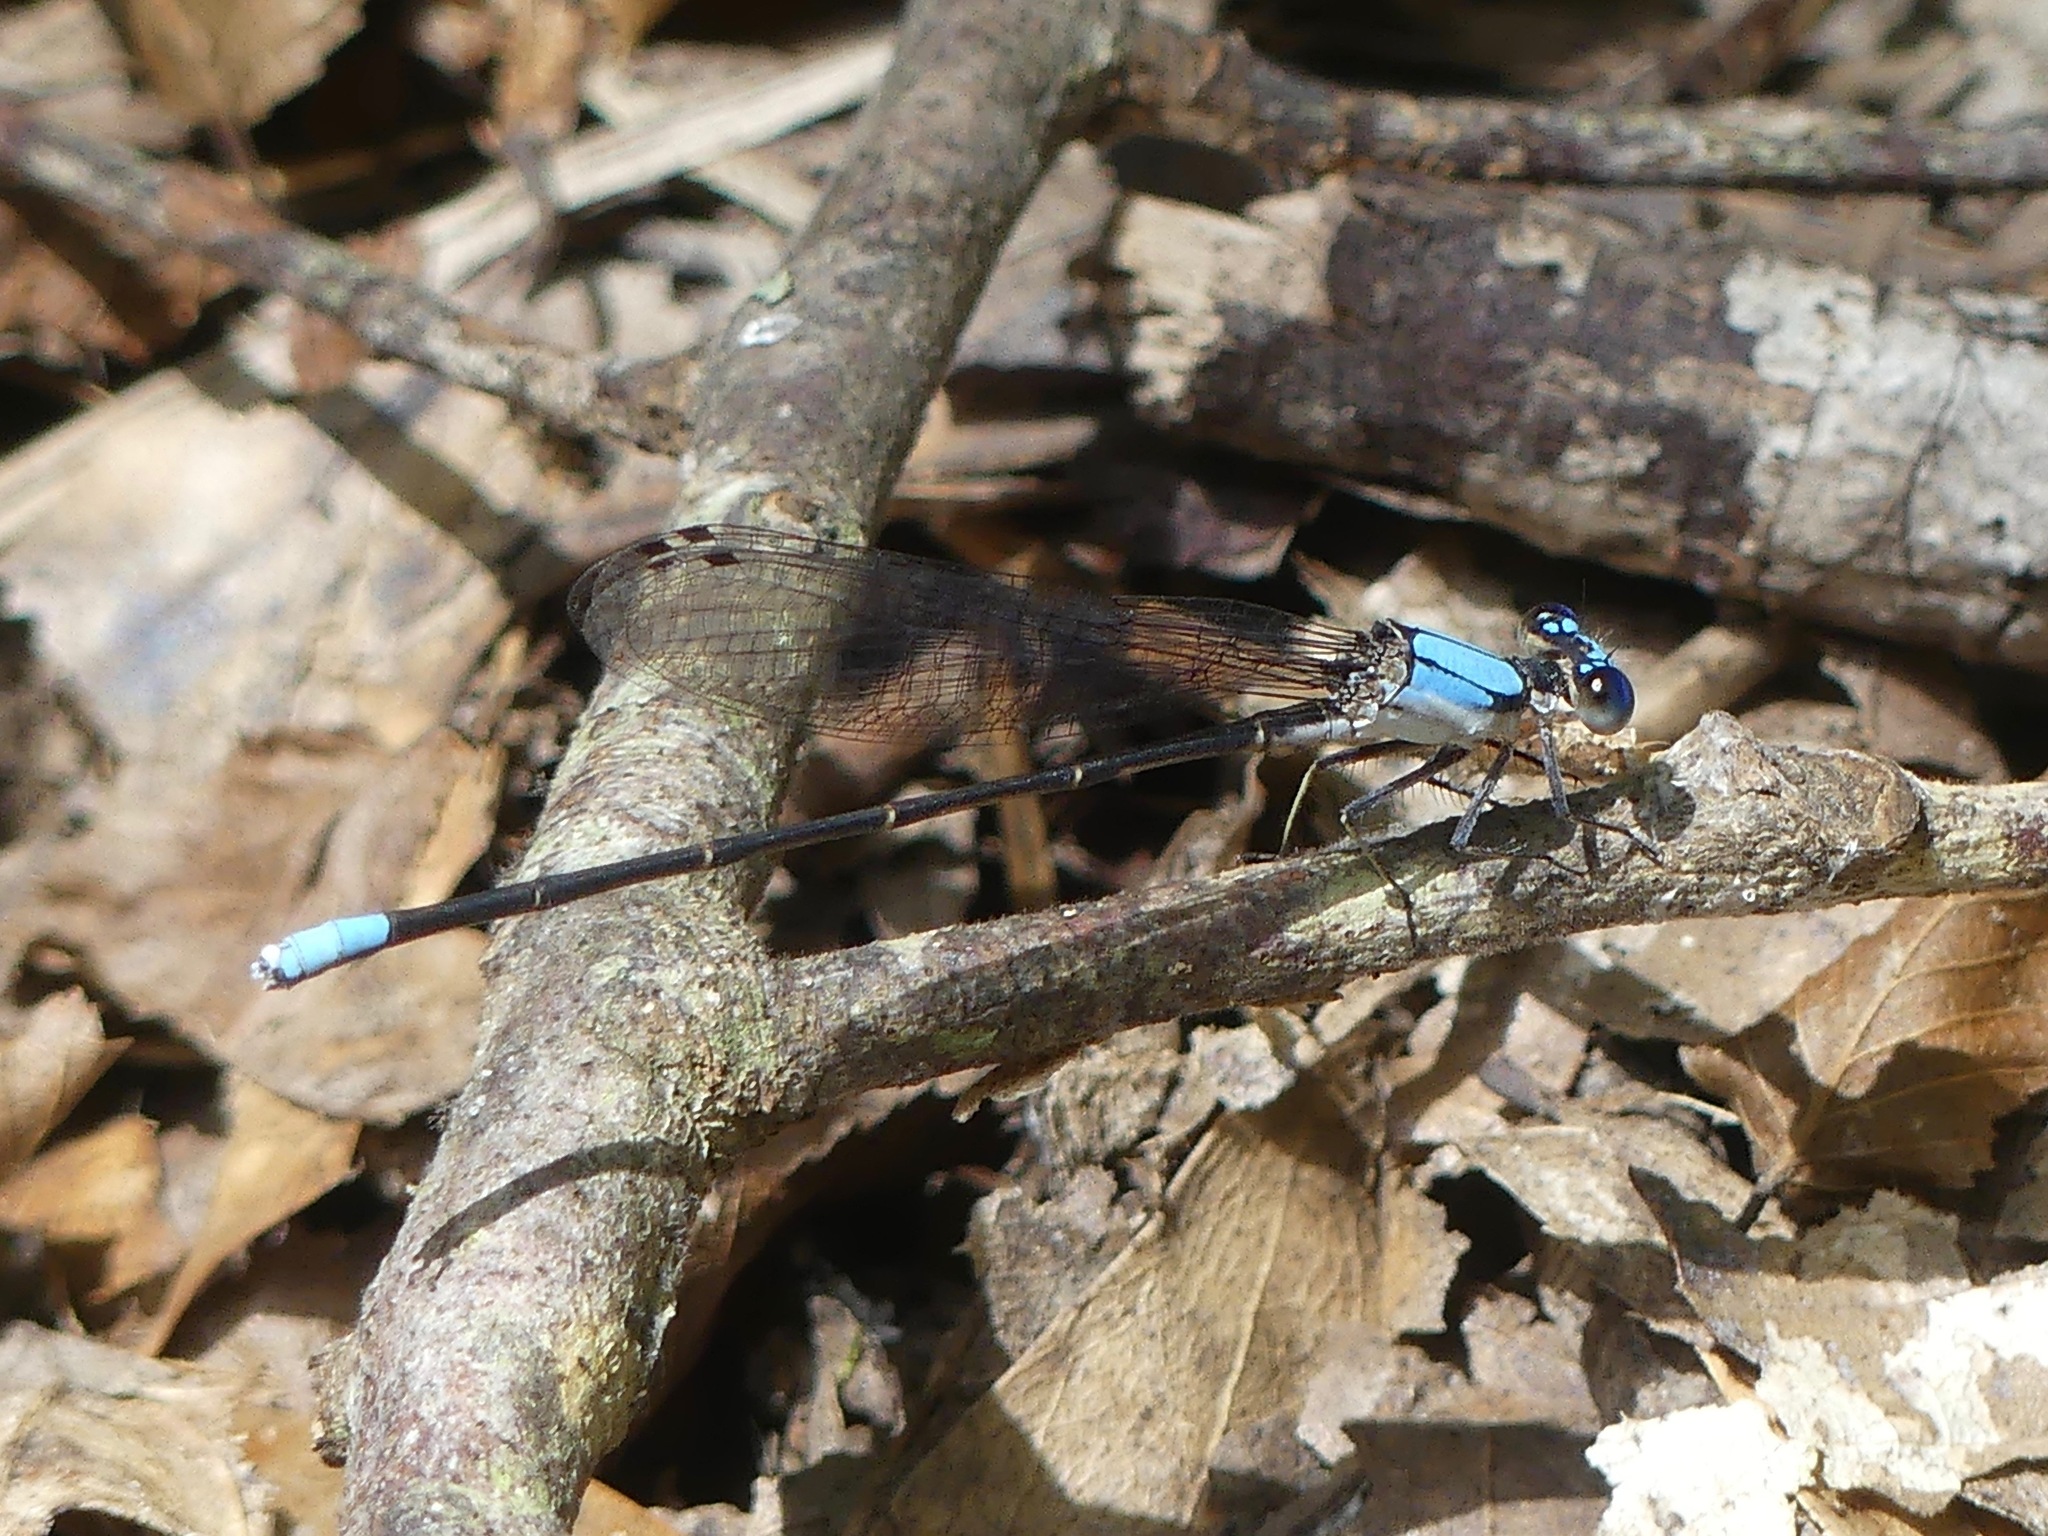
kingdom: Animalia
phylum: Arthropoda
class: Insecta
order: Odonata
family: Coenagrionidae
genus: Argia
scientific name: Argia apicalis
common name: Blue-fronted dancer
